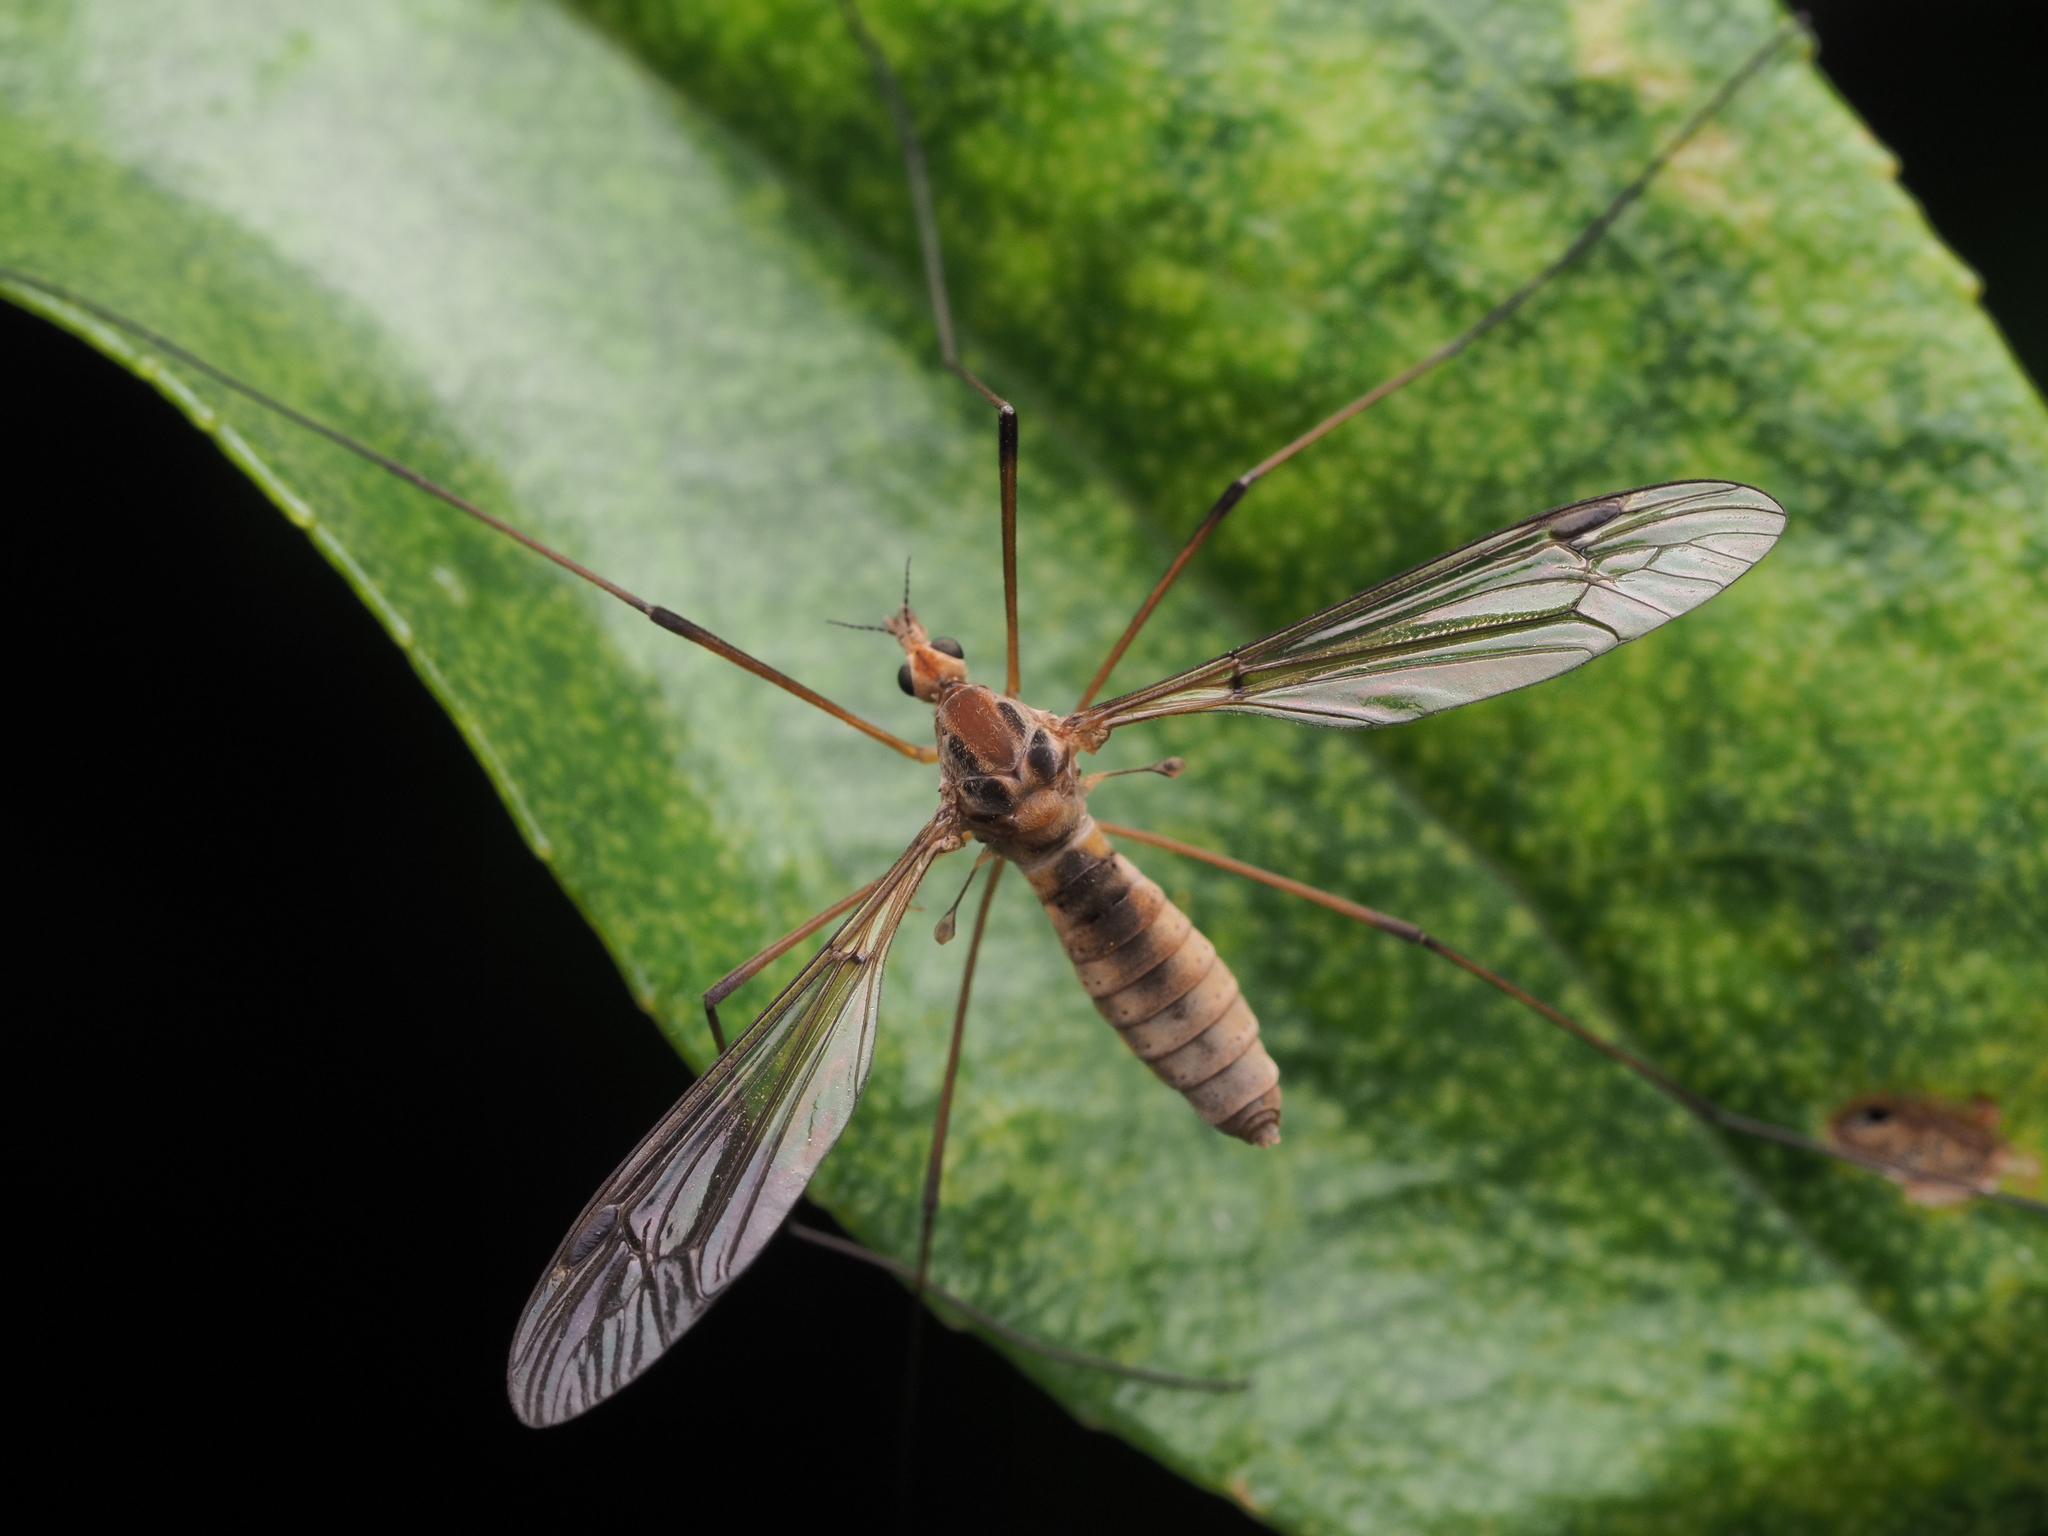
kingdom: Animalia
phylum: Arthropoda
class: Insecta
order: Diptera
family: Tipulidae
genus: Leptotarsus
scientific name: Leptotarsus dichroithorax
